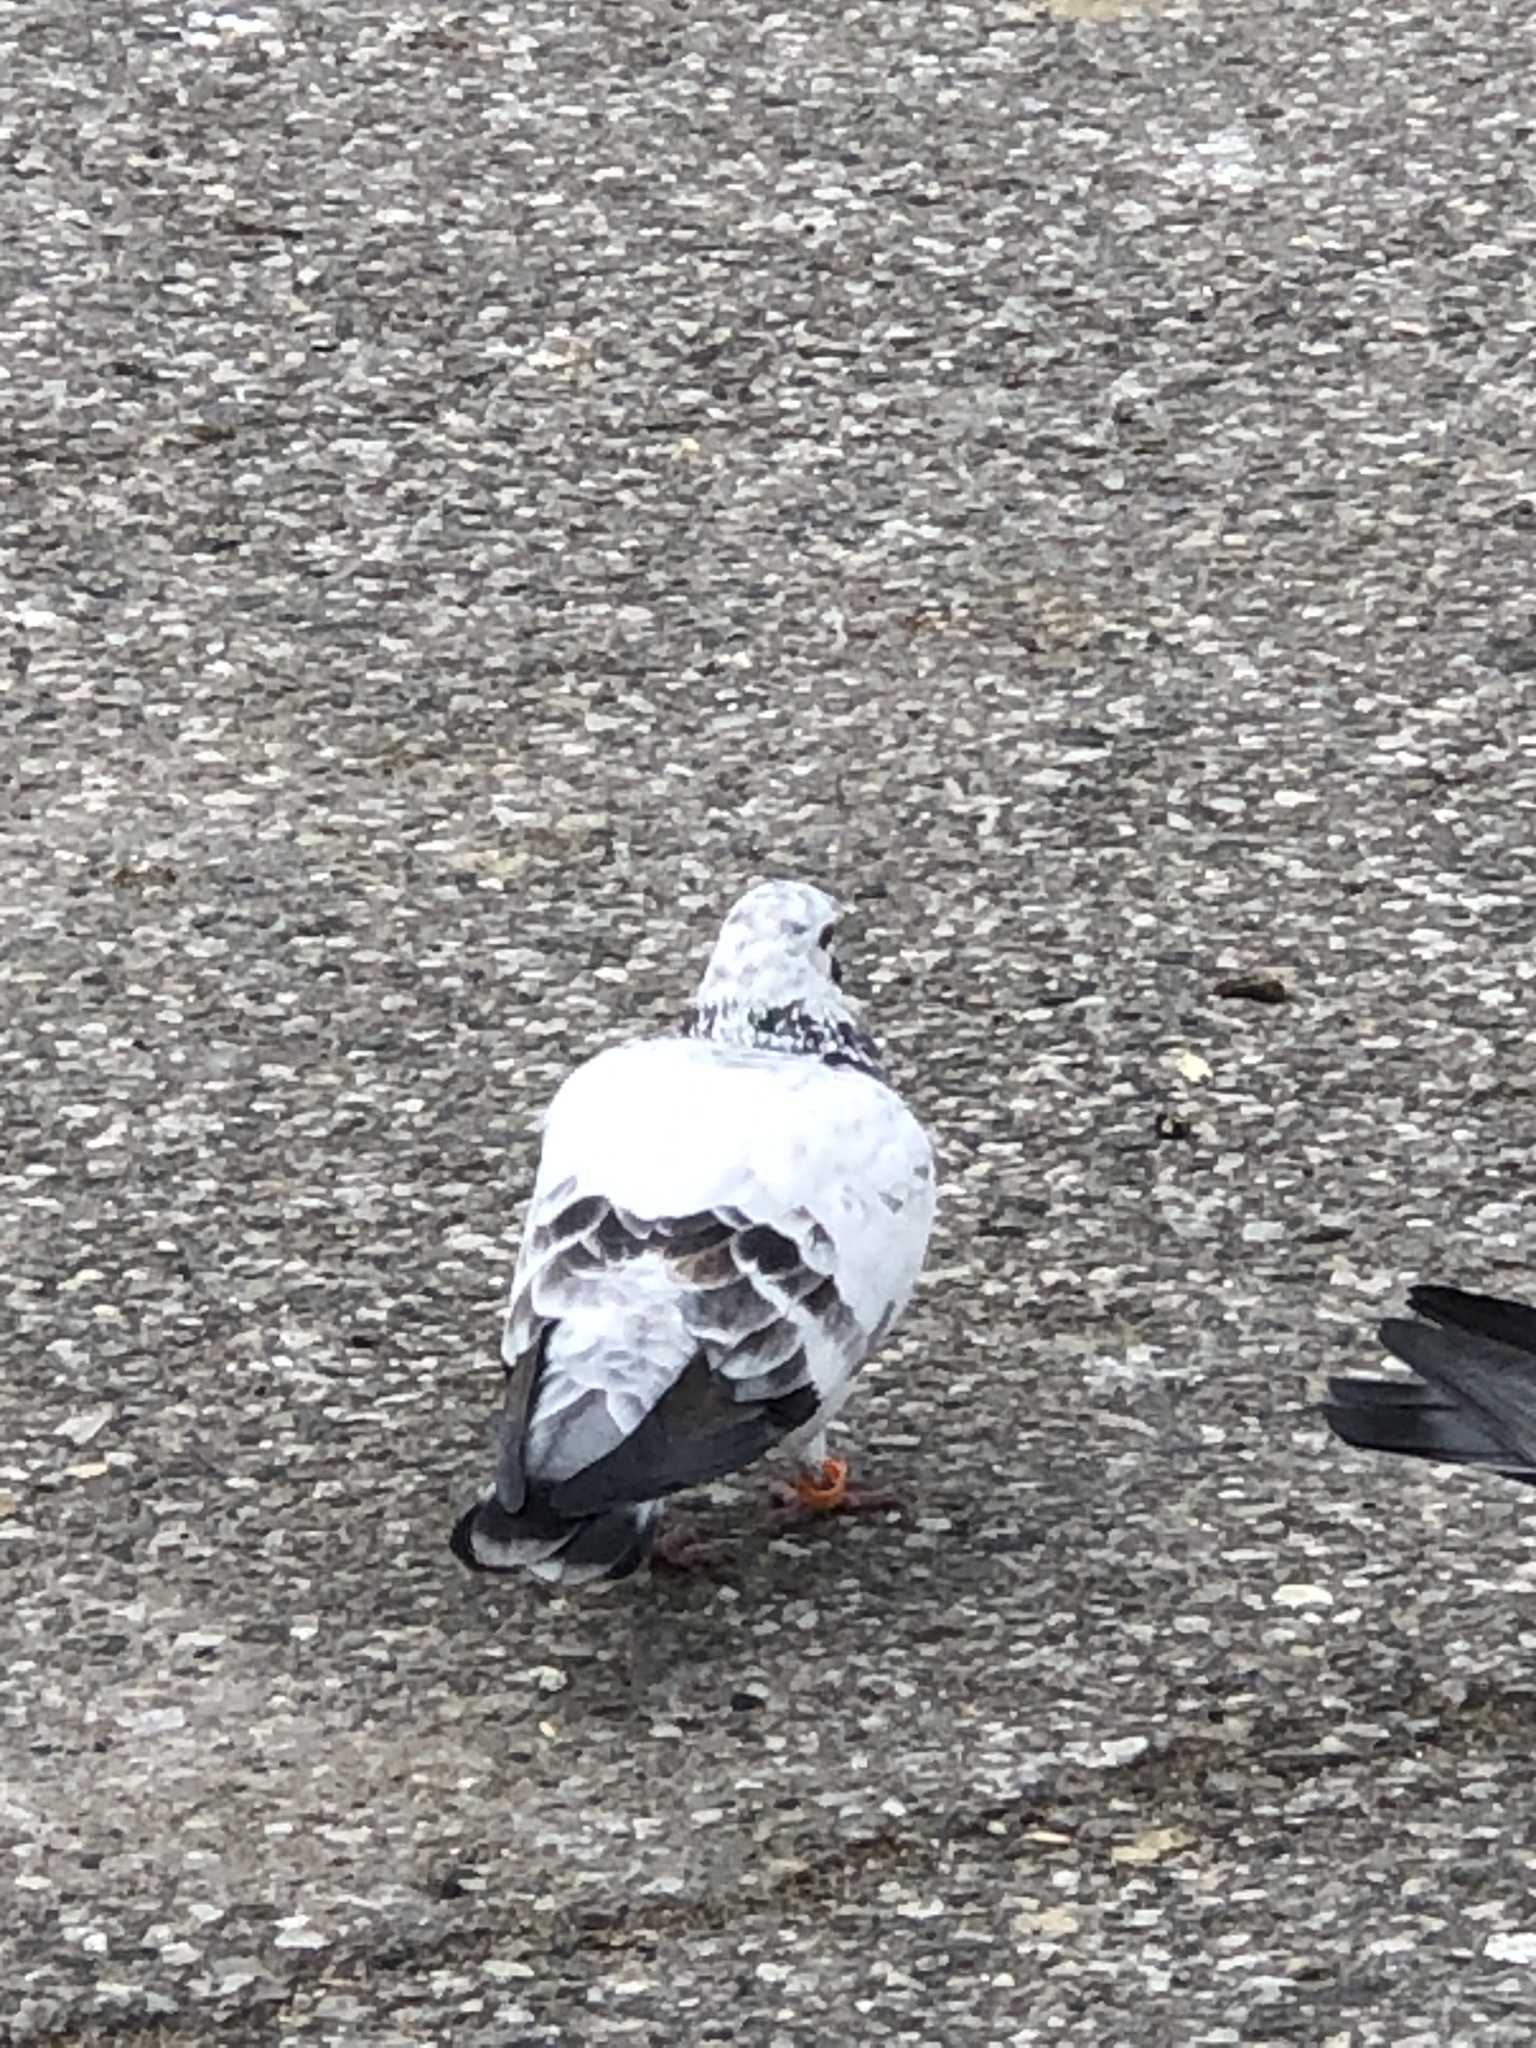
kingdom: Animalia
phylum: Chordata
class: Aves
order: Columbiformes
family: Columbidae
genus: Columba
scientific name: Columba livia
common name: Rock pigeon
